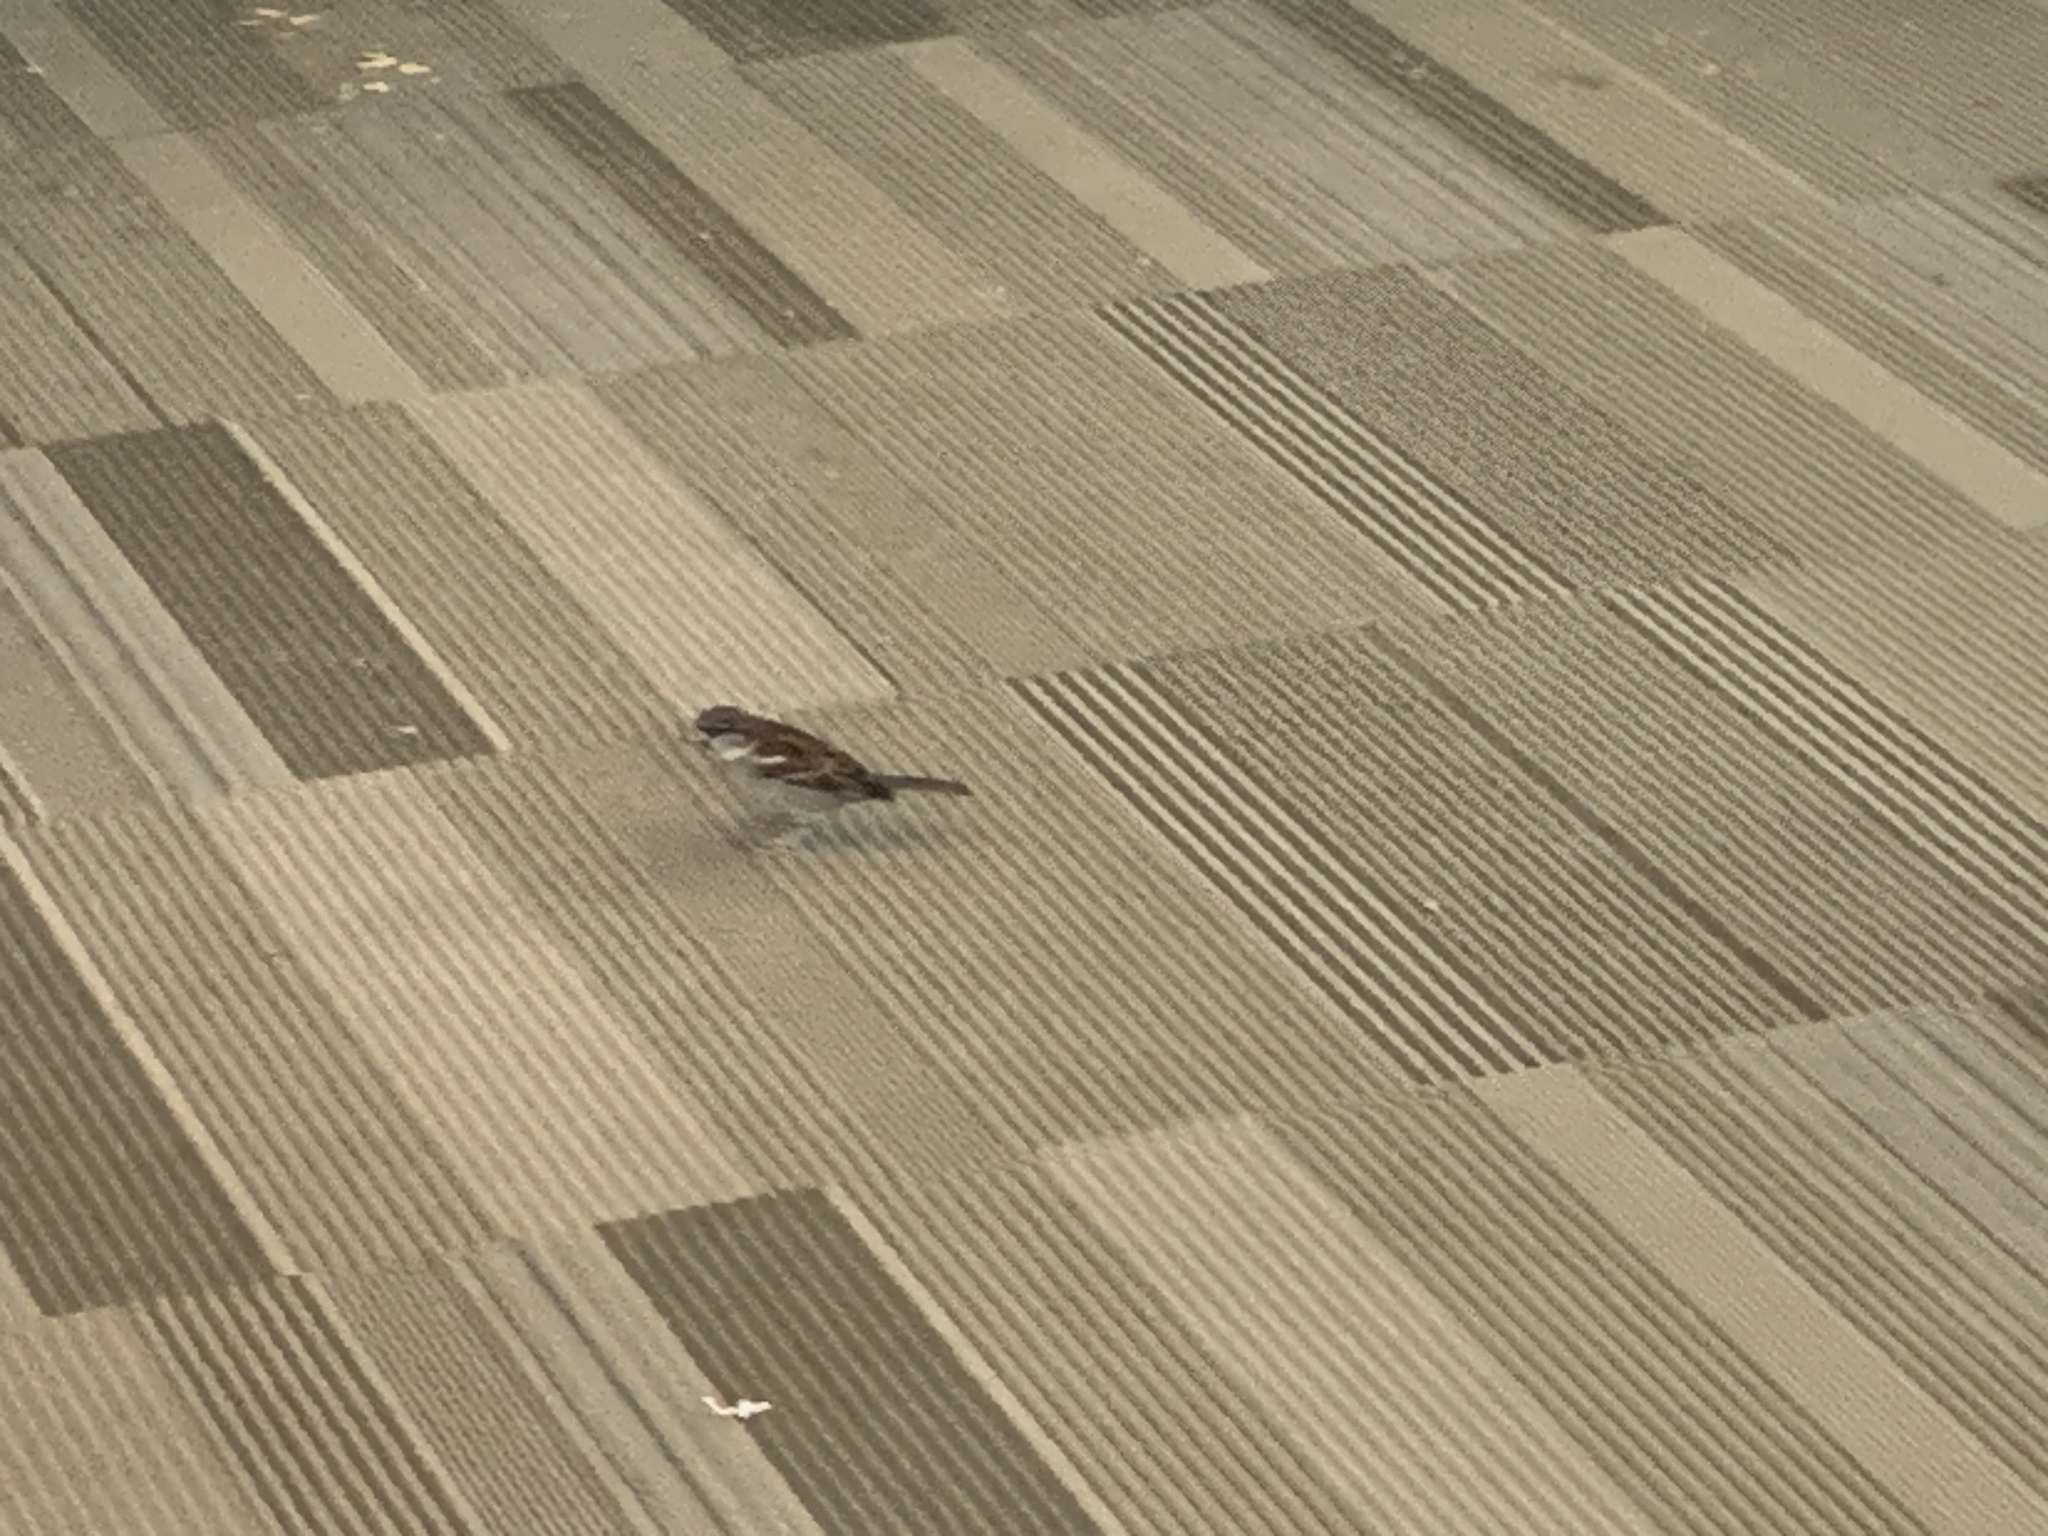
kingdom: Animalia
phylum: Chordata
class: Aves
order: Passeriformes
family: Passeridae
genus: Passer
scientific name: Passer domesticus
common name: House sparrow
